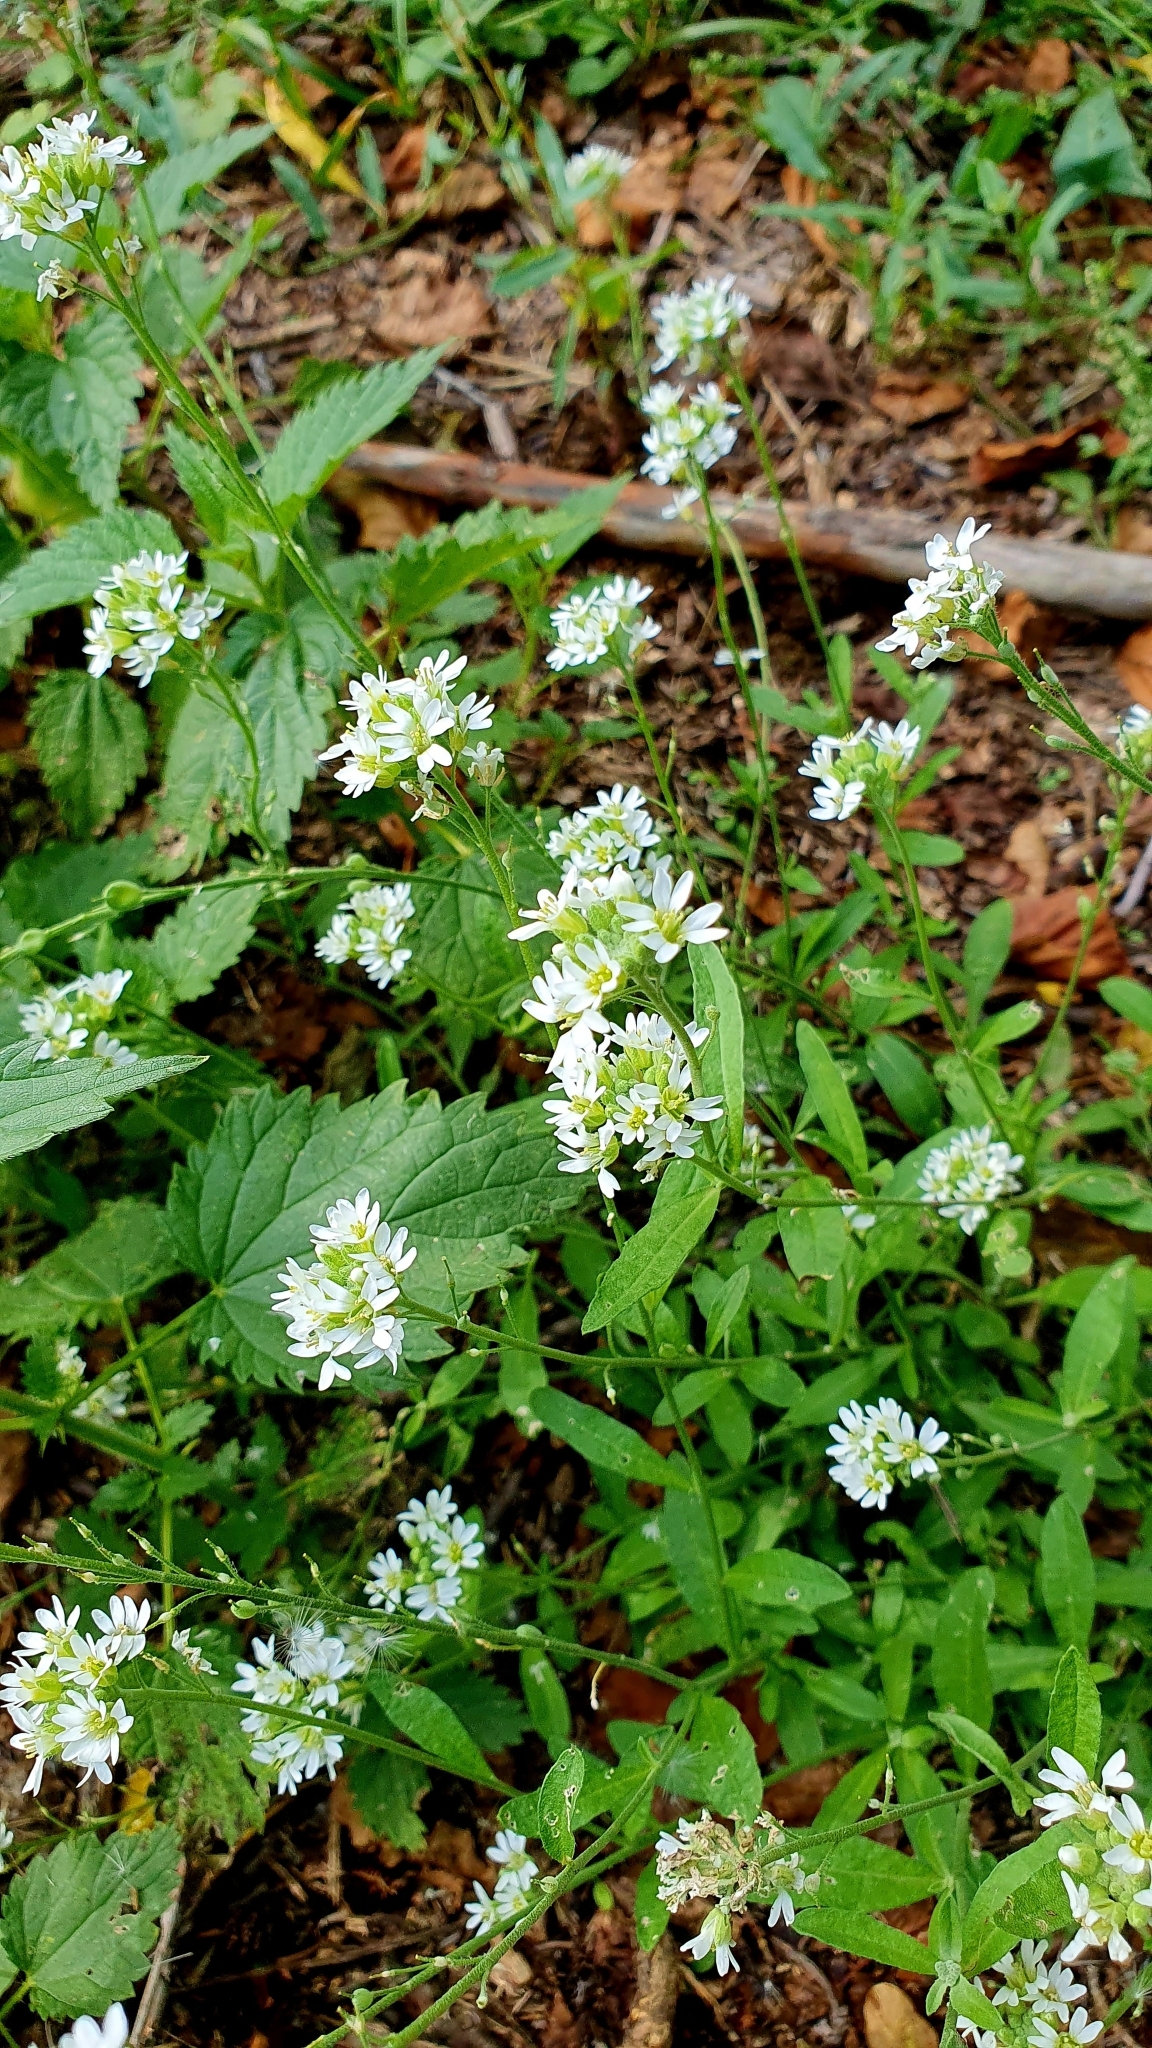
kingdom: Plantae
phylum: Tracheophyta
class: Magnoliopsida
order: Brassicales
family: Brassicaceae
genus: Berteroa
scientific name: Berteroa incana
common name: Hoary alison
